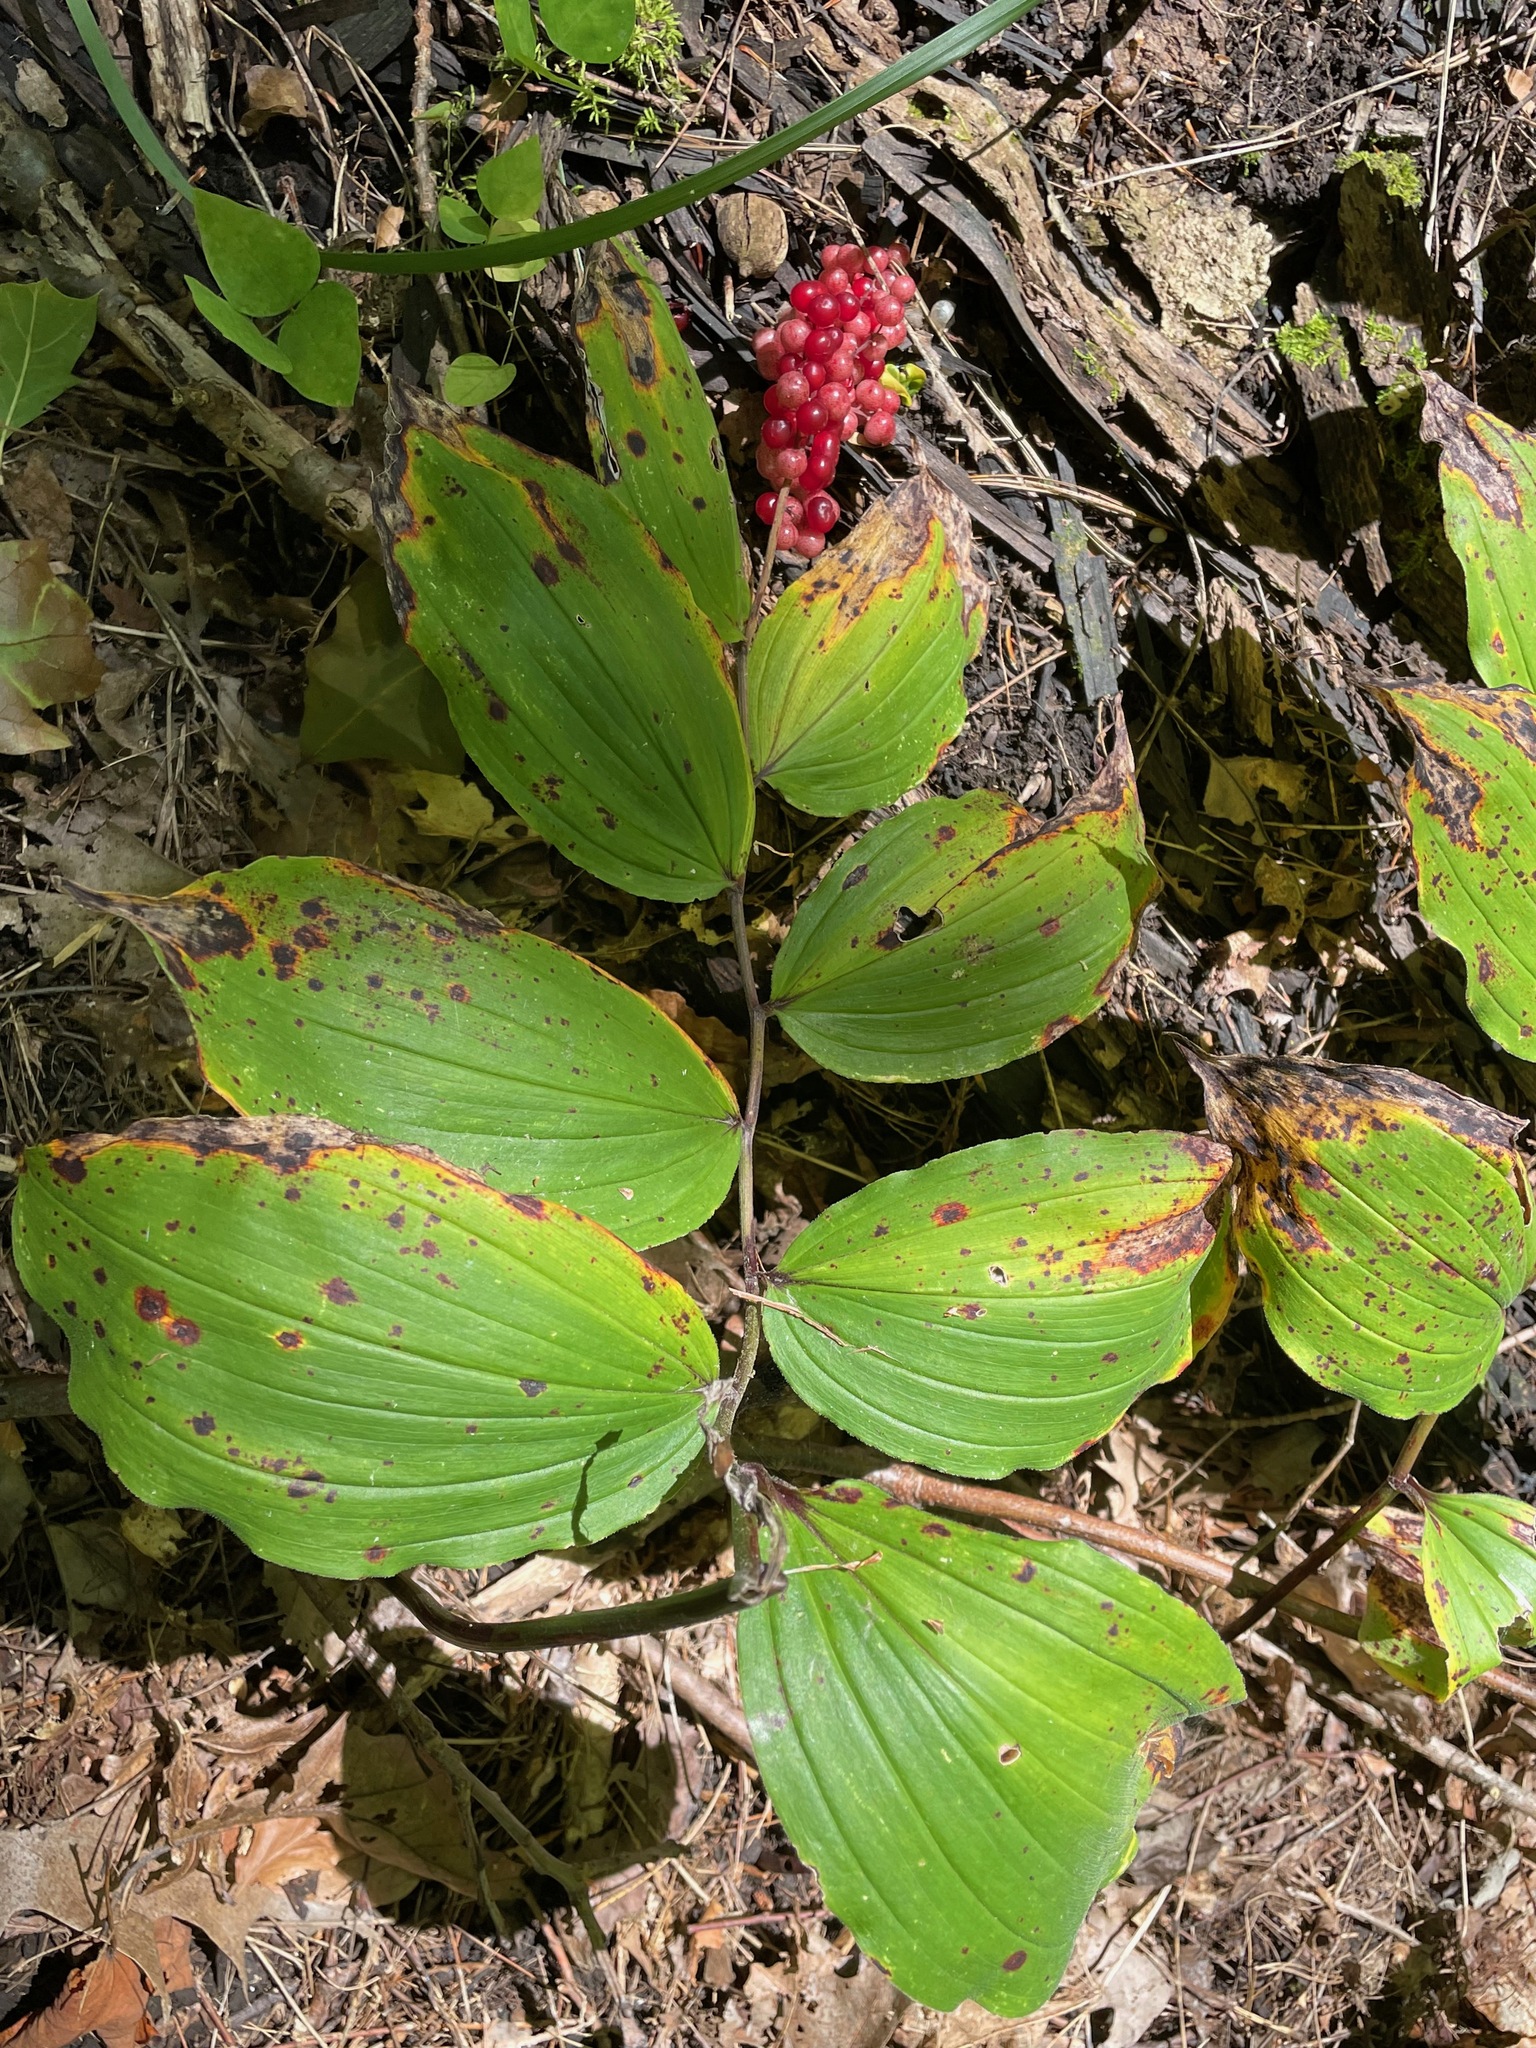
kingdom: Plantae
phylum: Tracheophyta
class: Liliopsida
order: Asparagales
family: Asparagaceae
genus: Maianthemum
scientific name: Maianthemum racemosum
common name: False spikenard
